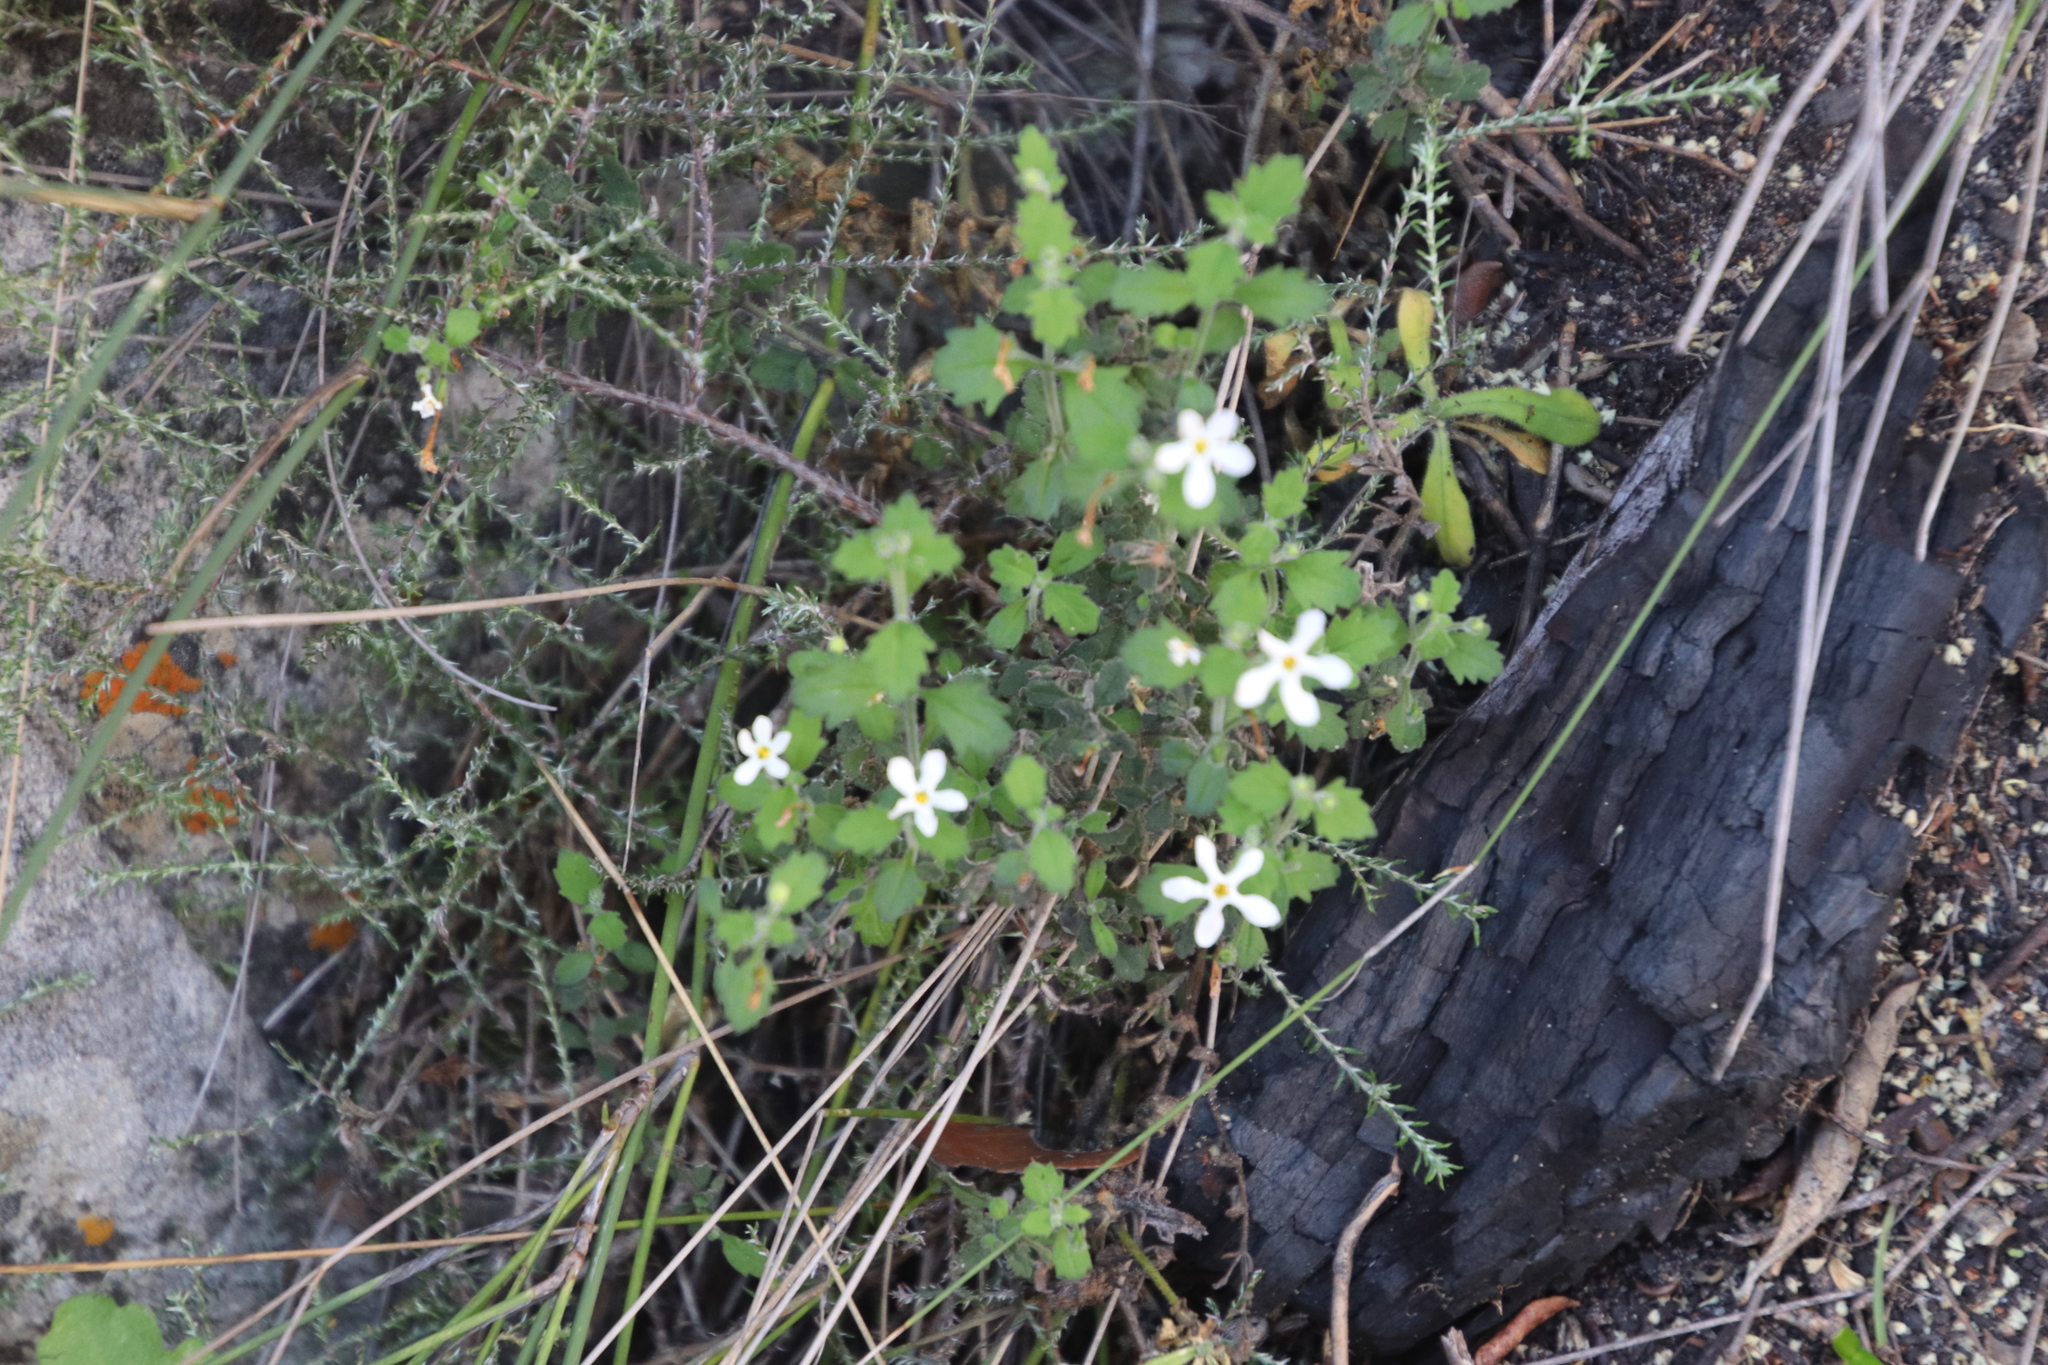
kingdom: Plantae
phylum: Tracheophyta
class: Magnoliopsida
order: Lamiales
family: Scrophulariaceae
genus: Chaenostoma
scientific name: Chaenostoma hispidum
